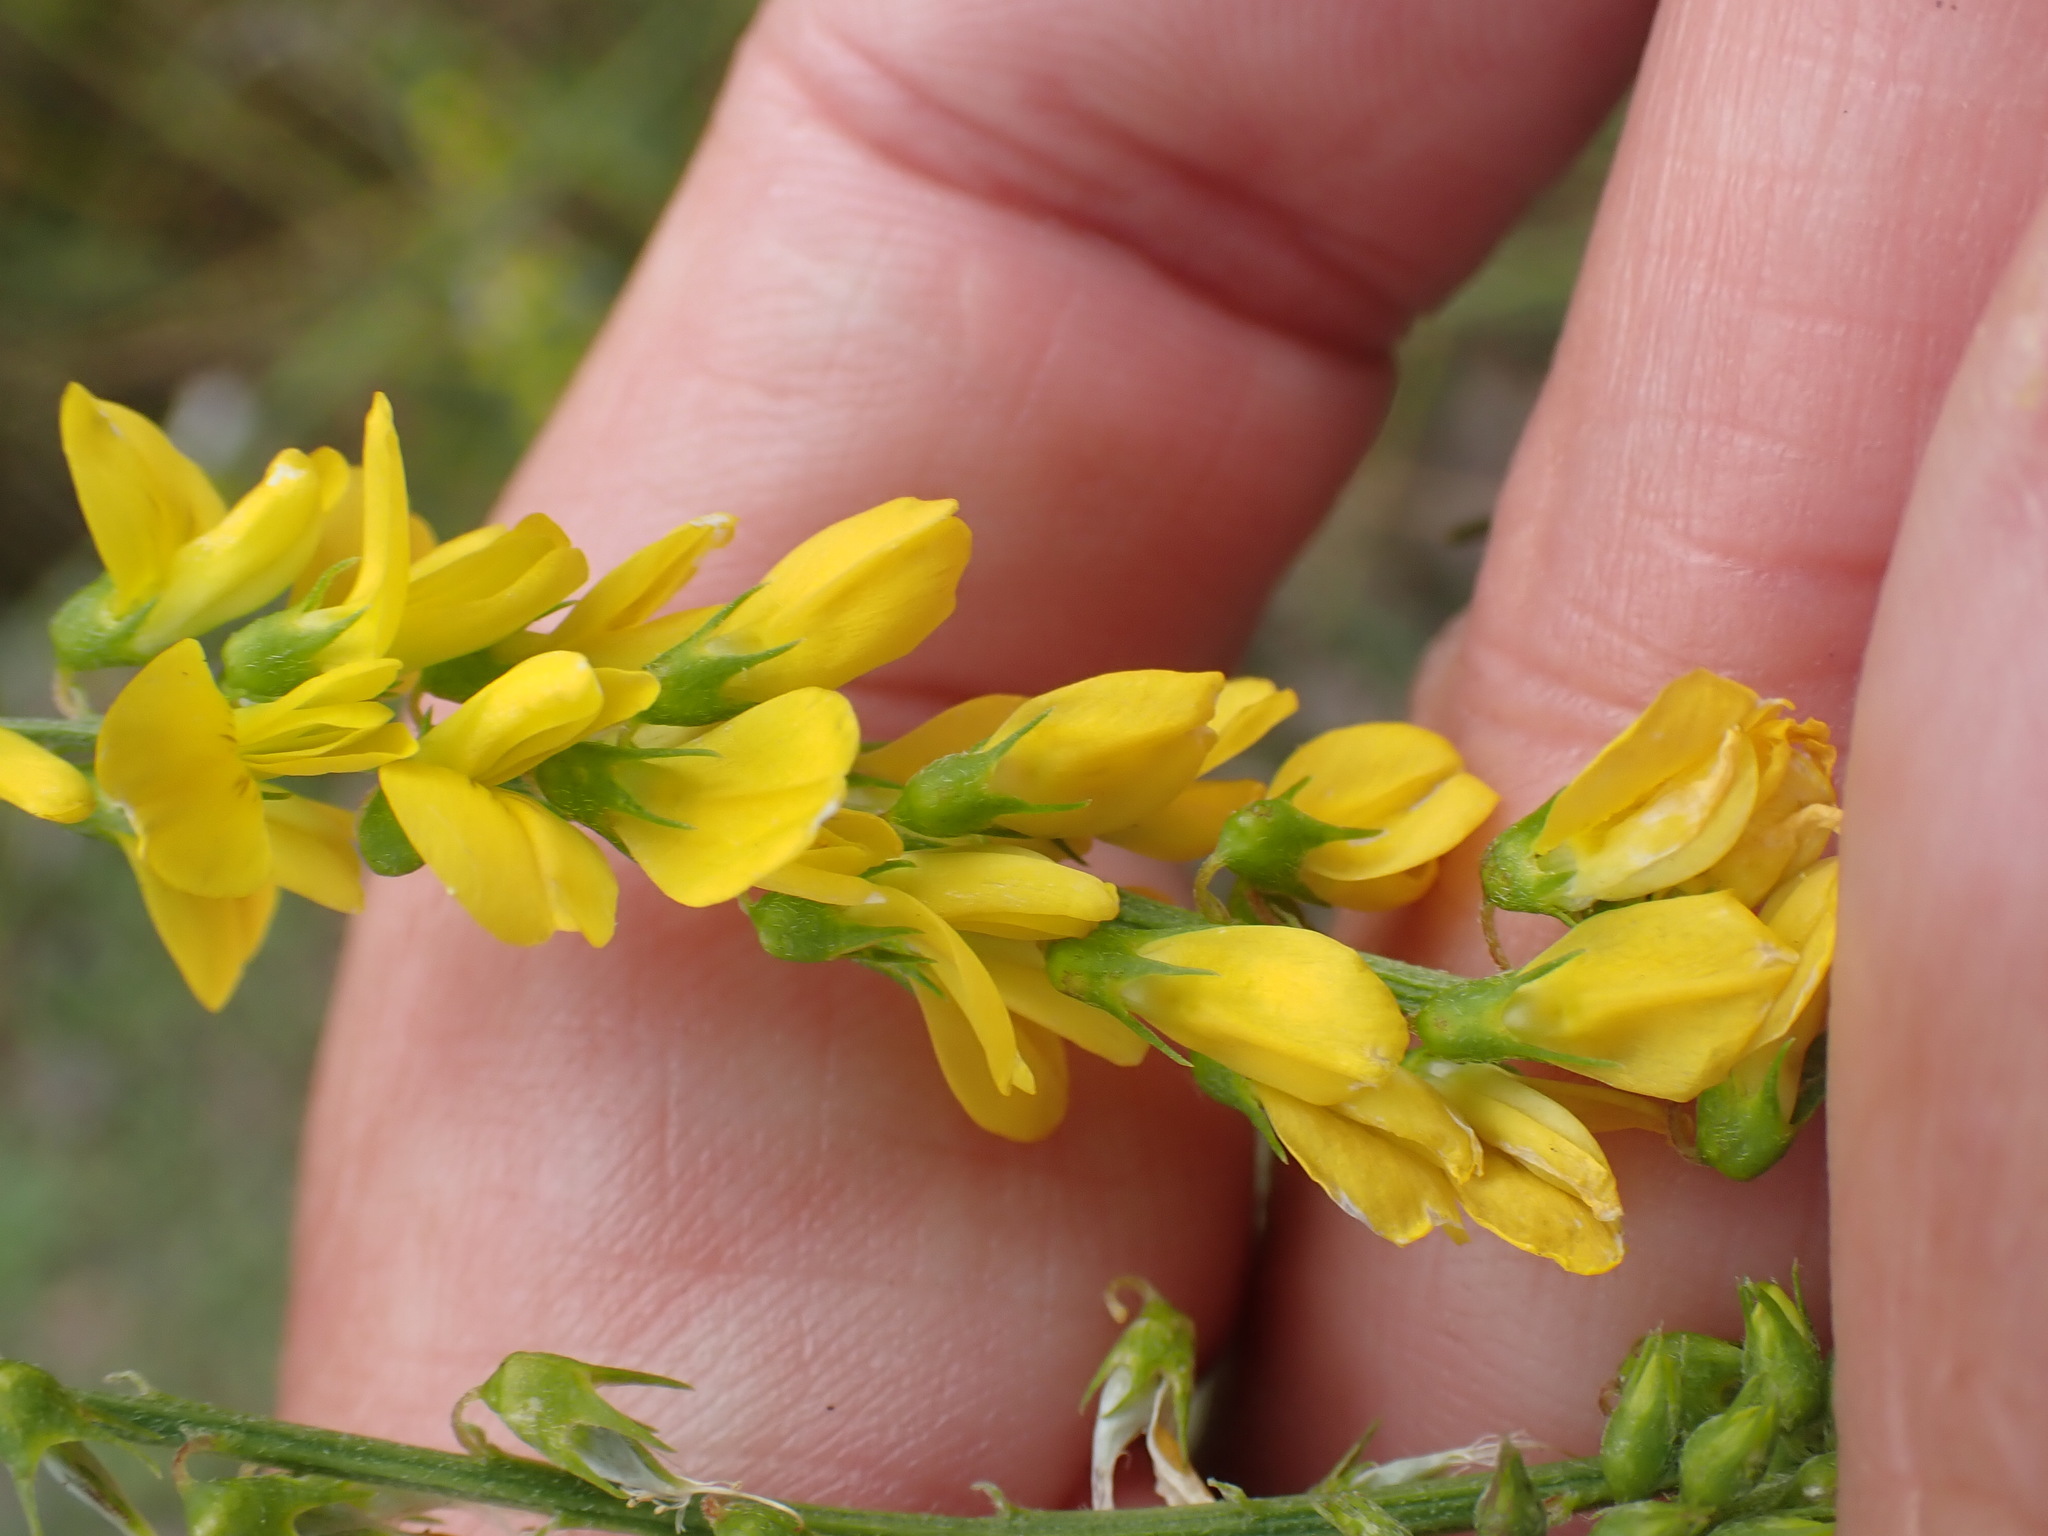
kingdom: Plantae
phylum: Tracheophyta
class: Magnoliopsida
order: Fabales
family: Fabaceae
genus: Melilotus
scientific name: Melilotus officinalis
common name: Sweetclover
